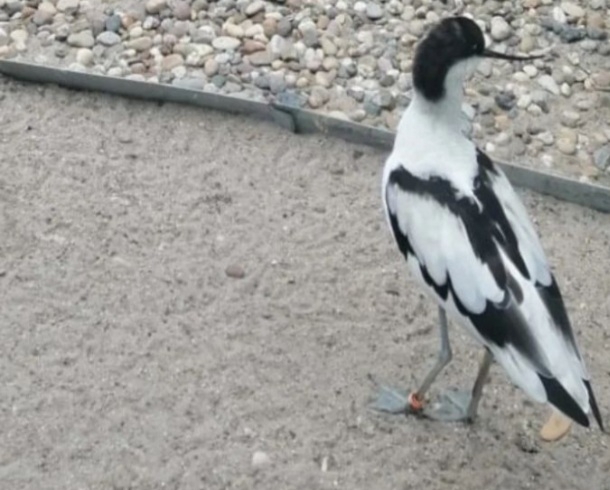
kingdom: Animalia
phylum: Chordata
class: Aves
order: Charadriiformes
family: Recurvirostridae
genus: Recurvirostra
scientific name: Recurvirostra avosetta
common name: Pied avocet
